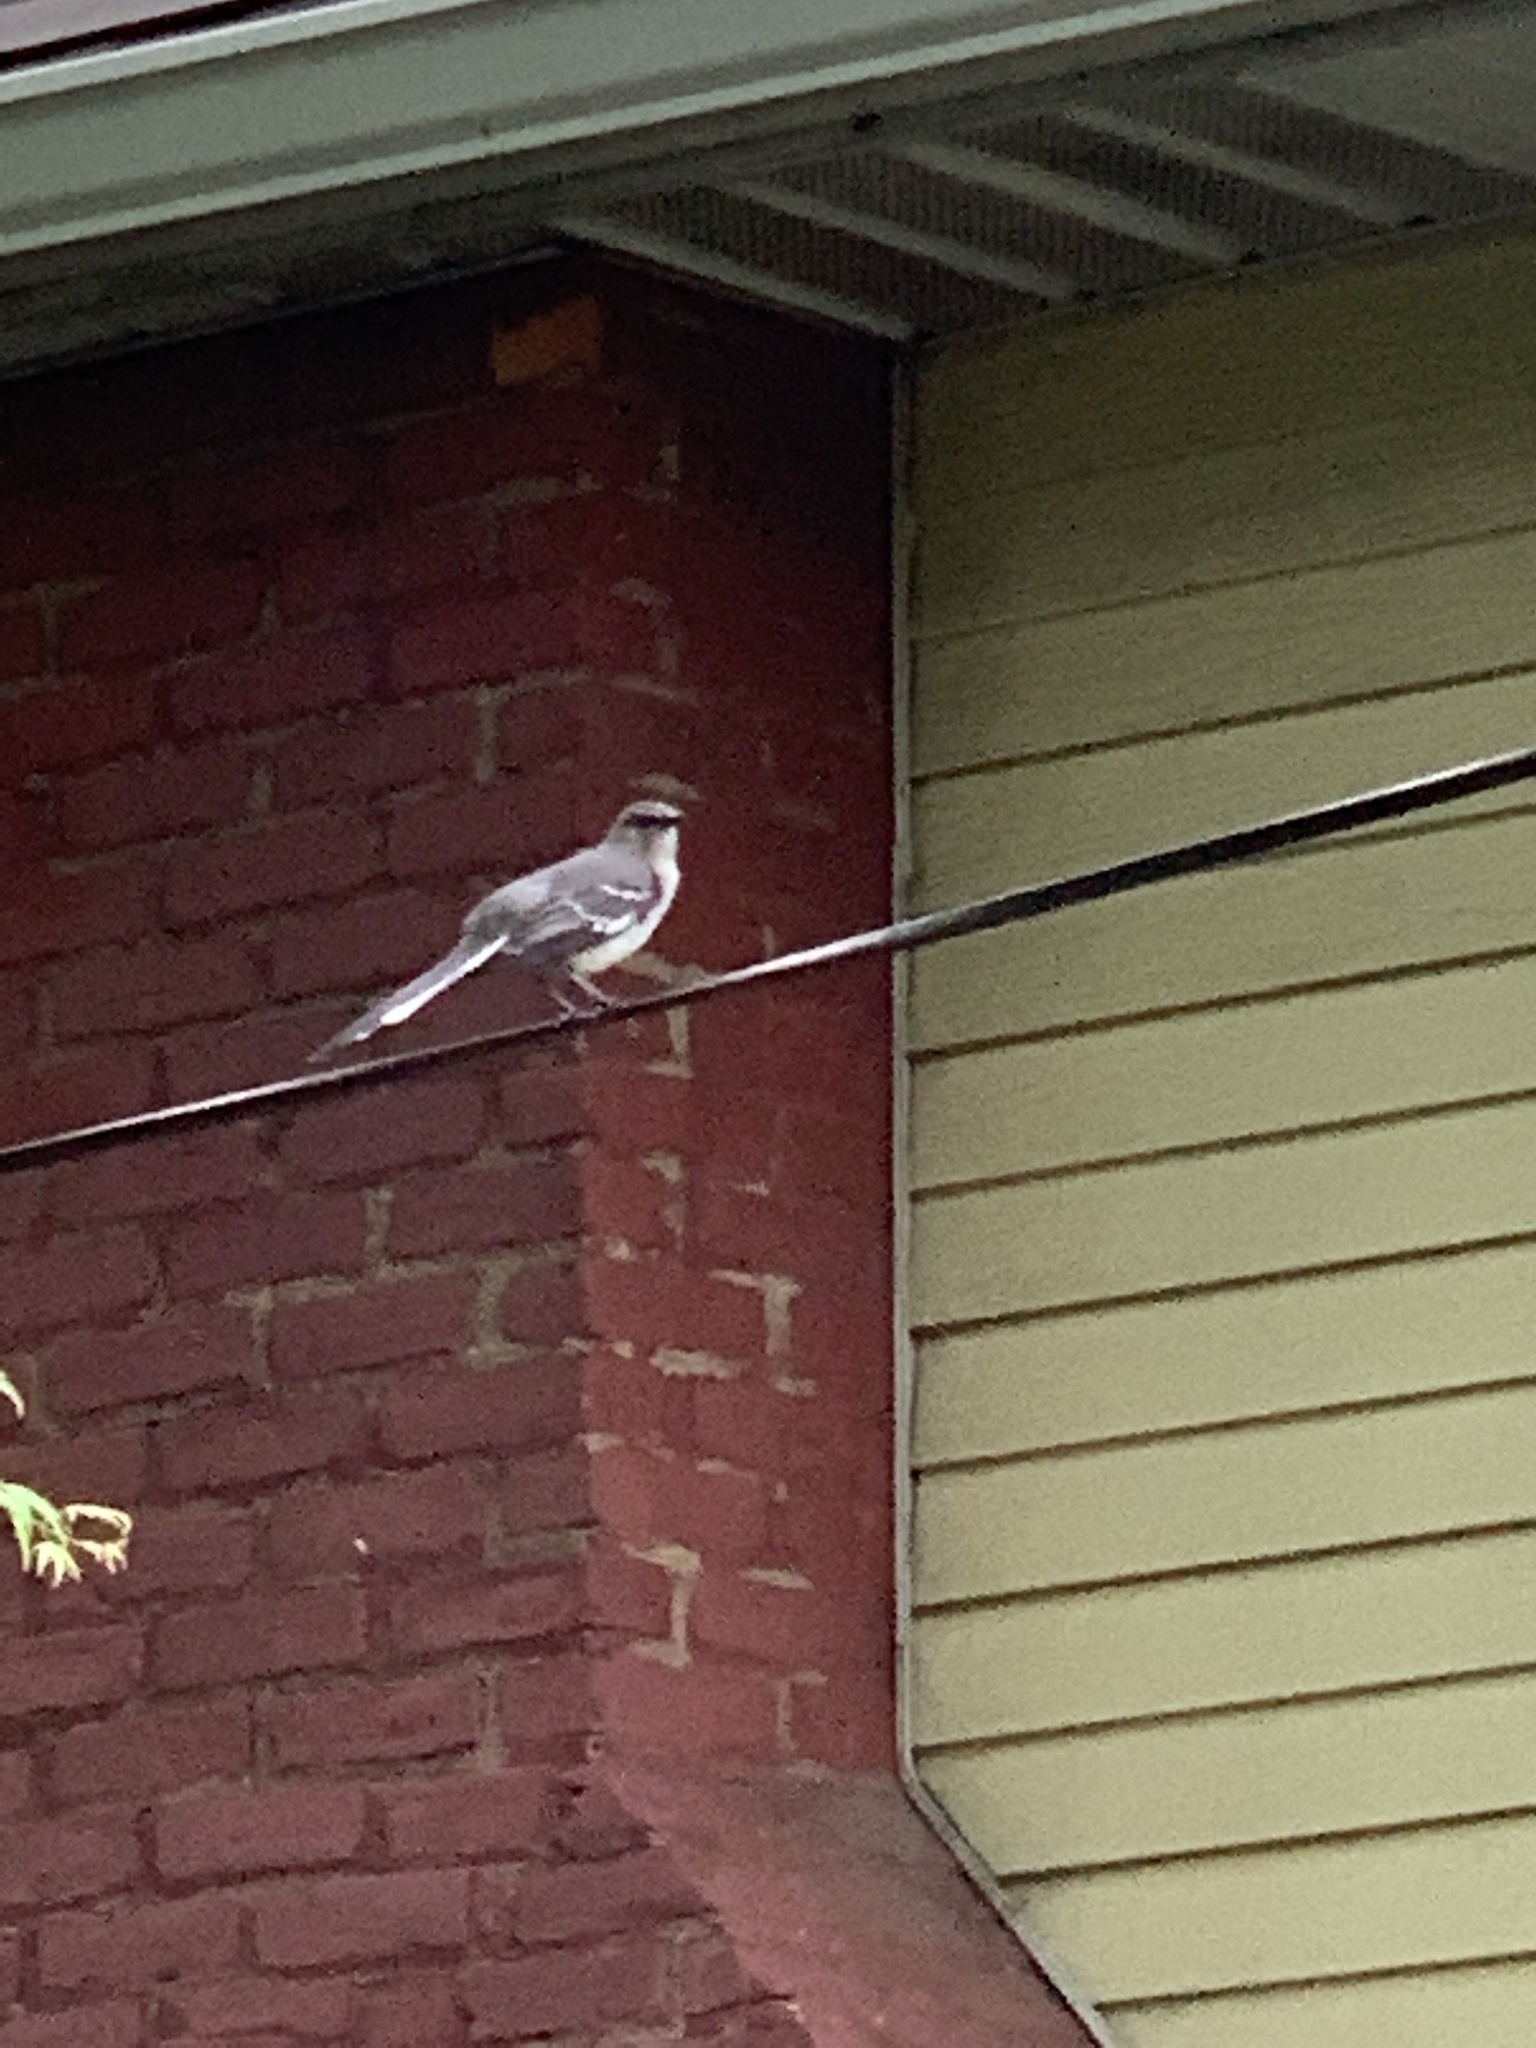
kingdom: Animalia
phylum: Chordata
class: Aves
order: Passeriformes
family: Mimidae
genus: Mimus
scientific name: Mimus polyglottos
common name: Northern mockingbird
